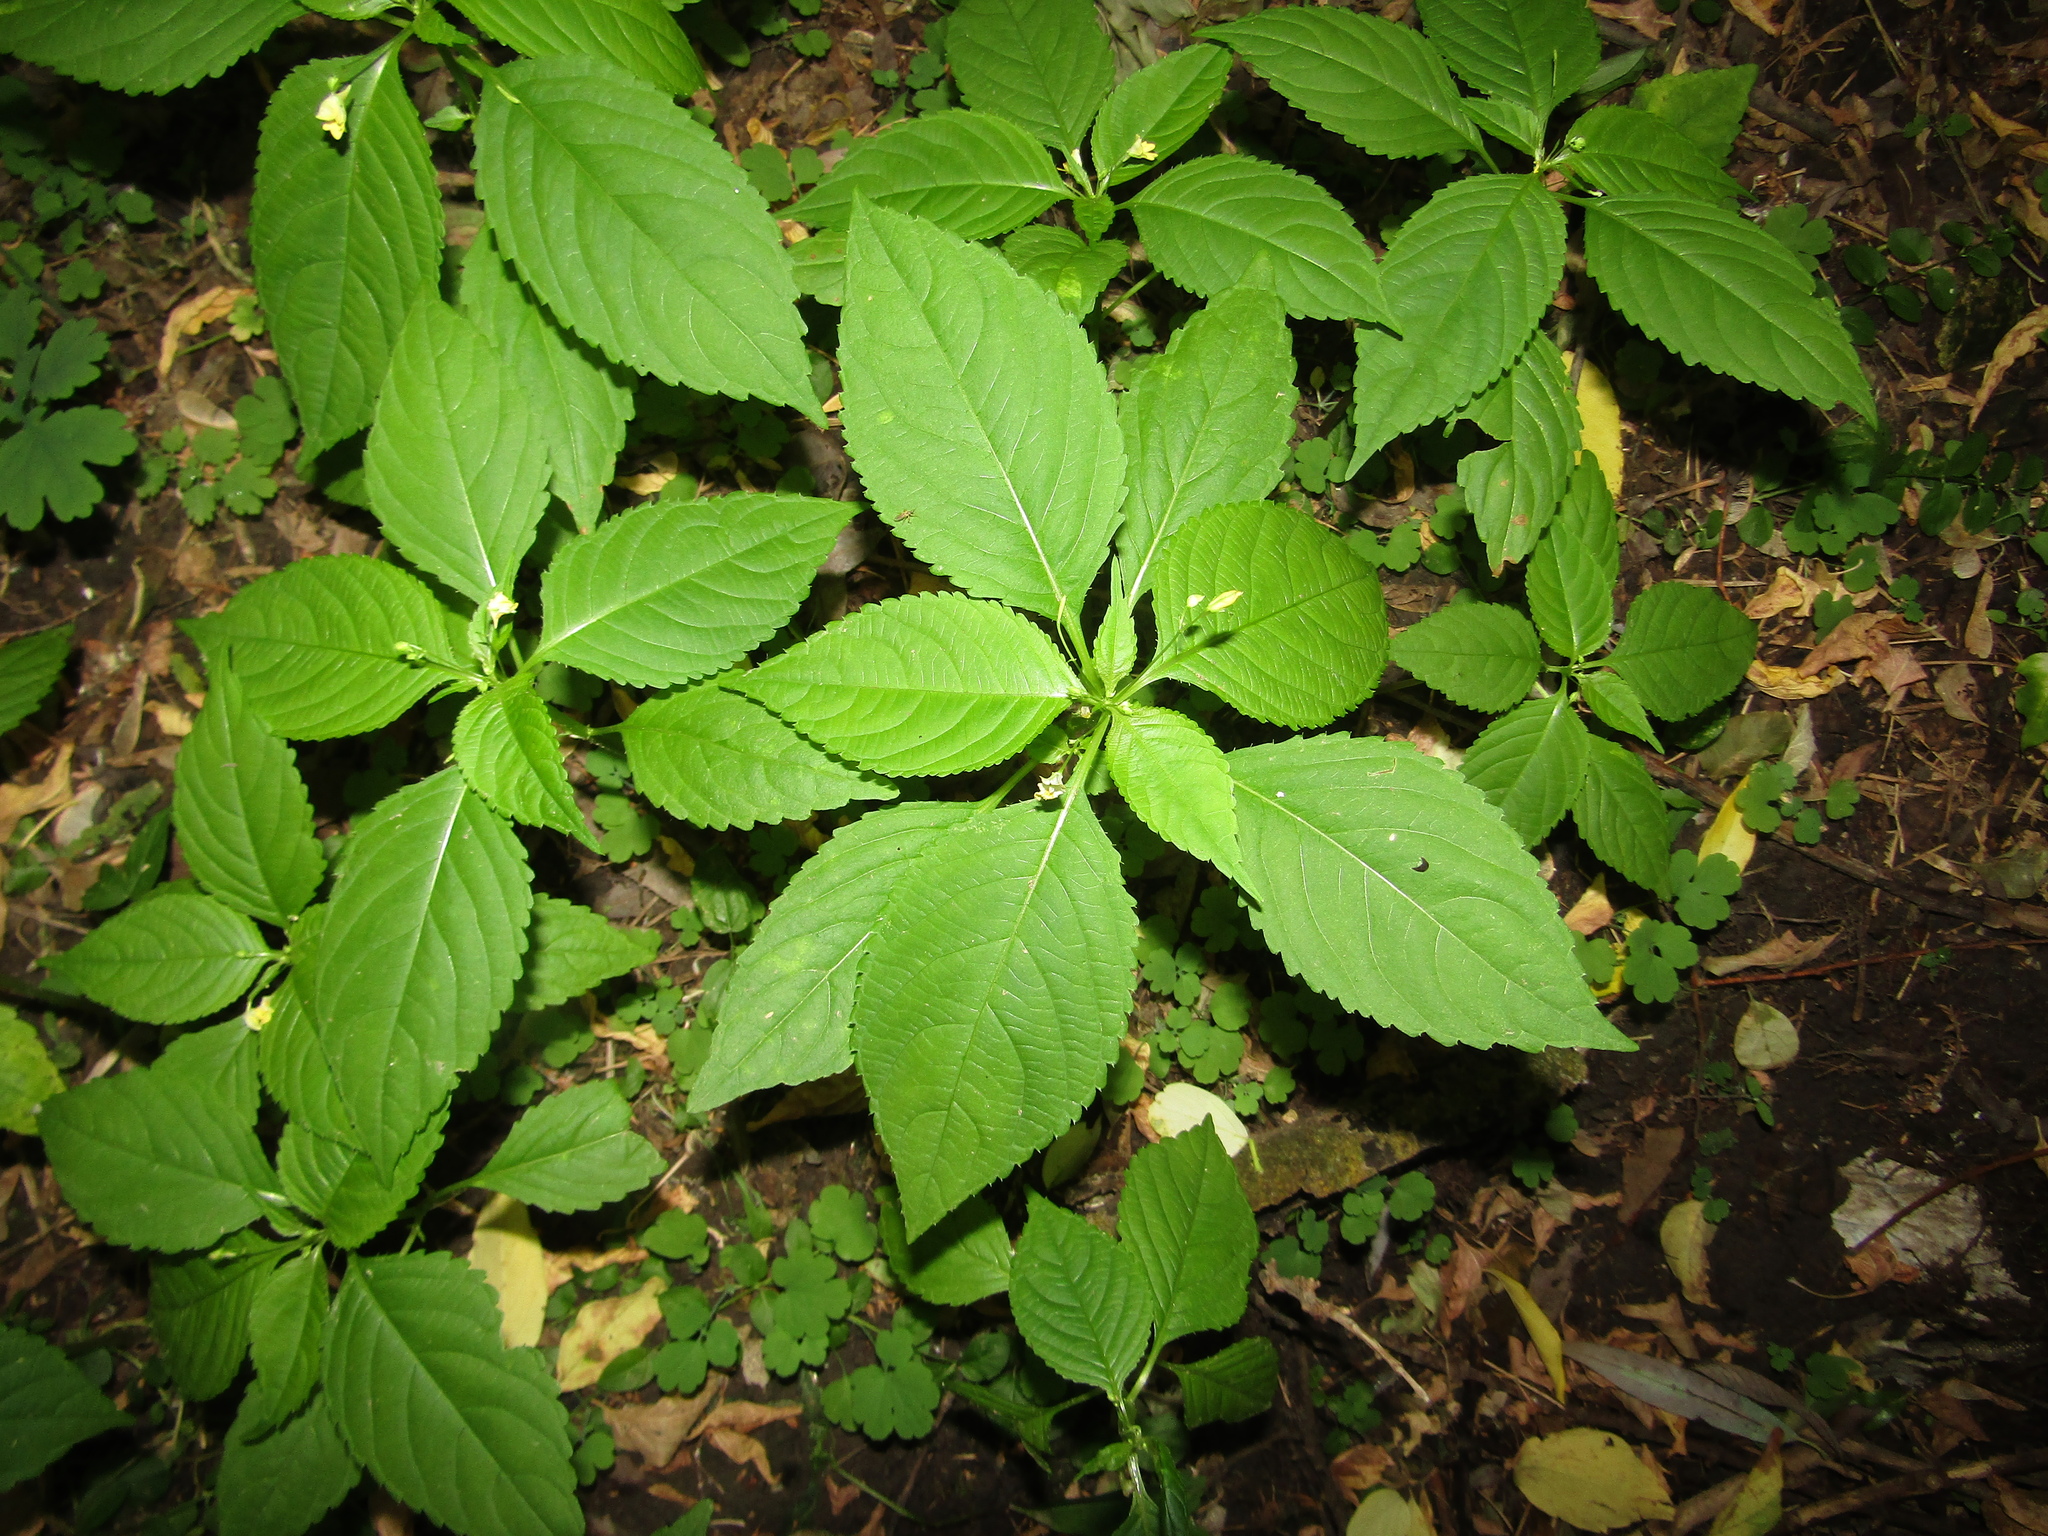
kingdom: Plantae
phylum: Tracheophyta
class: Magnoliopsida
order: Ericales
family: Balsaminaceae
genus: Impatiens
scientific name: Impatiens parviflora
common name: Small balsam
